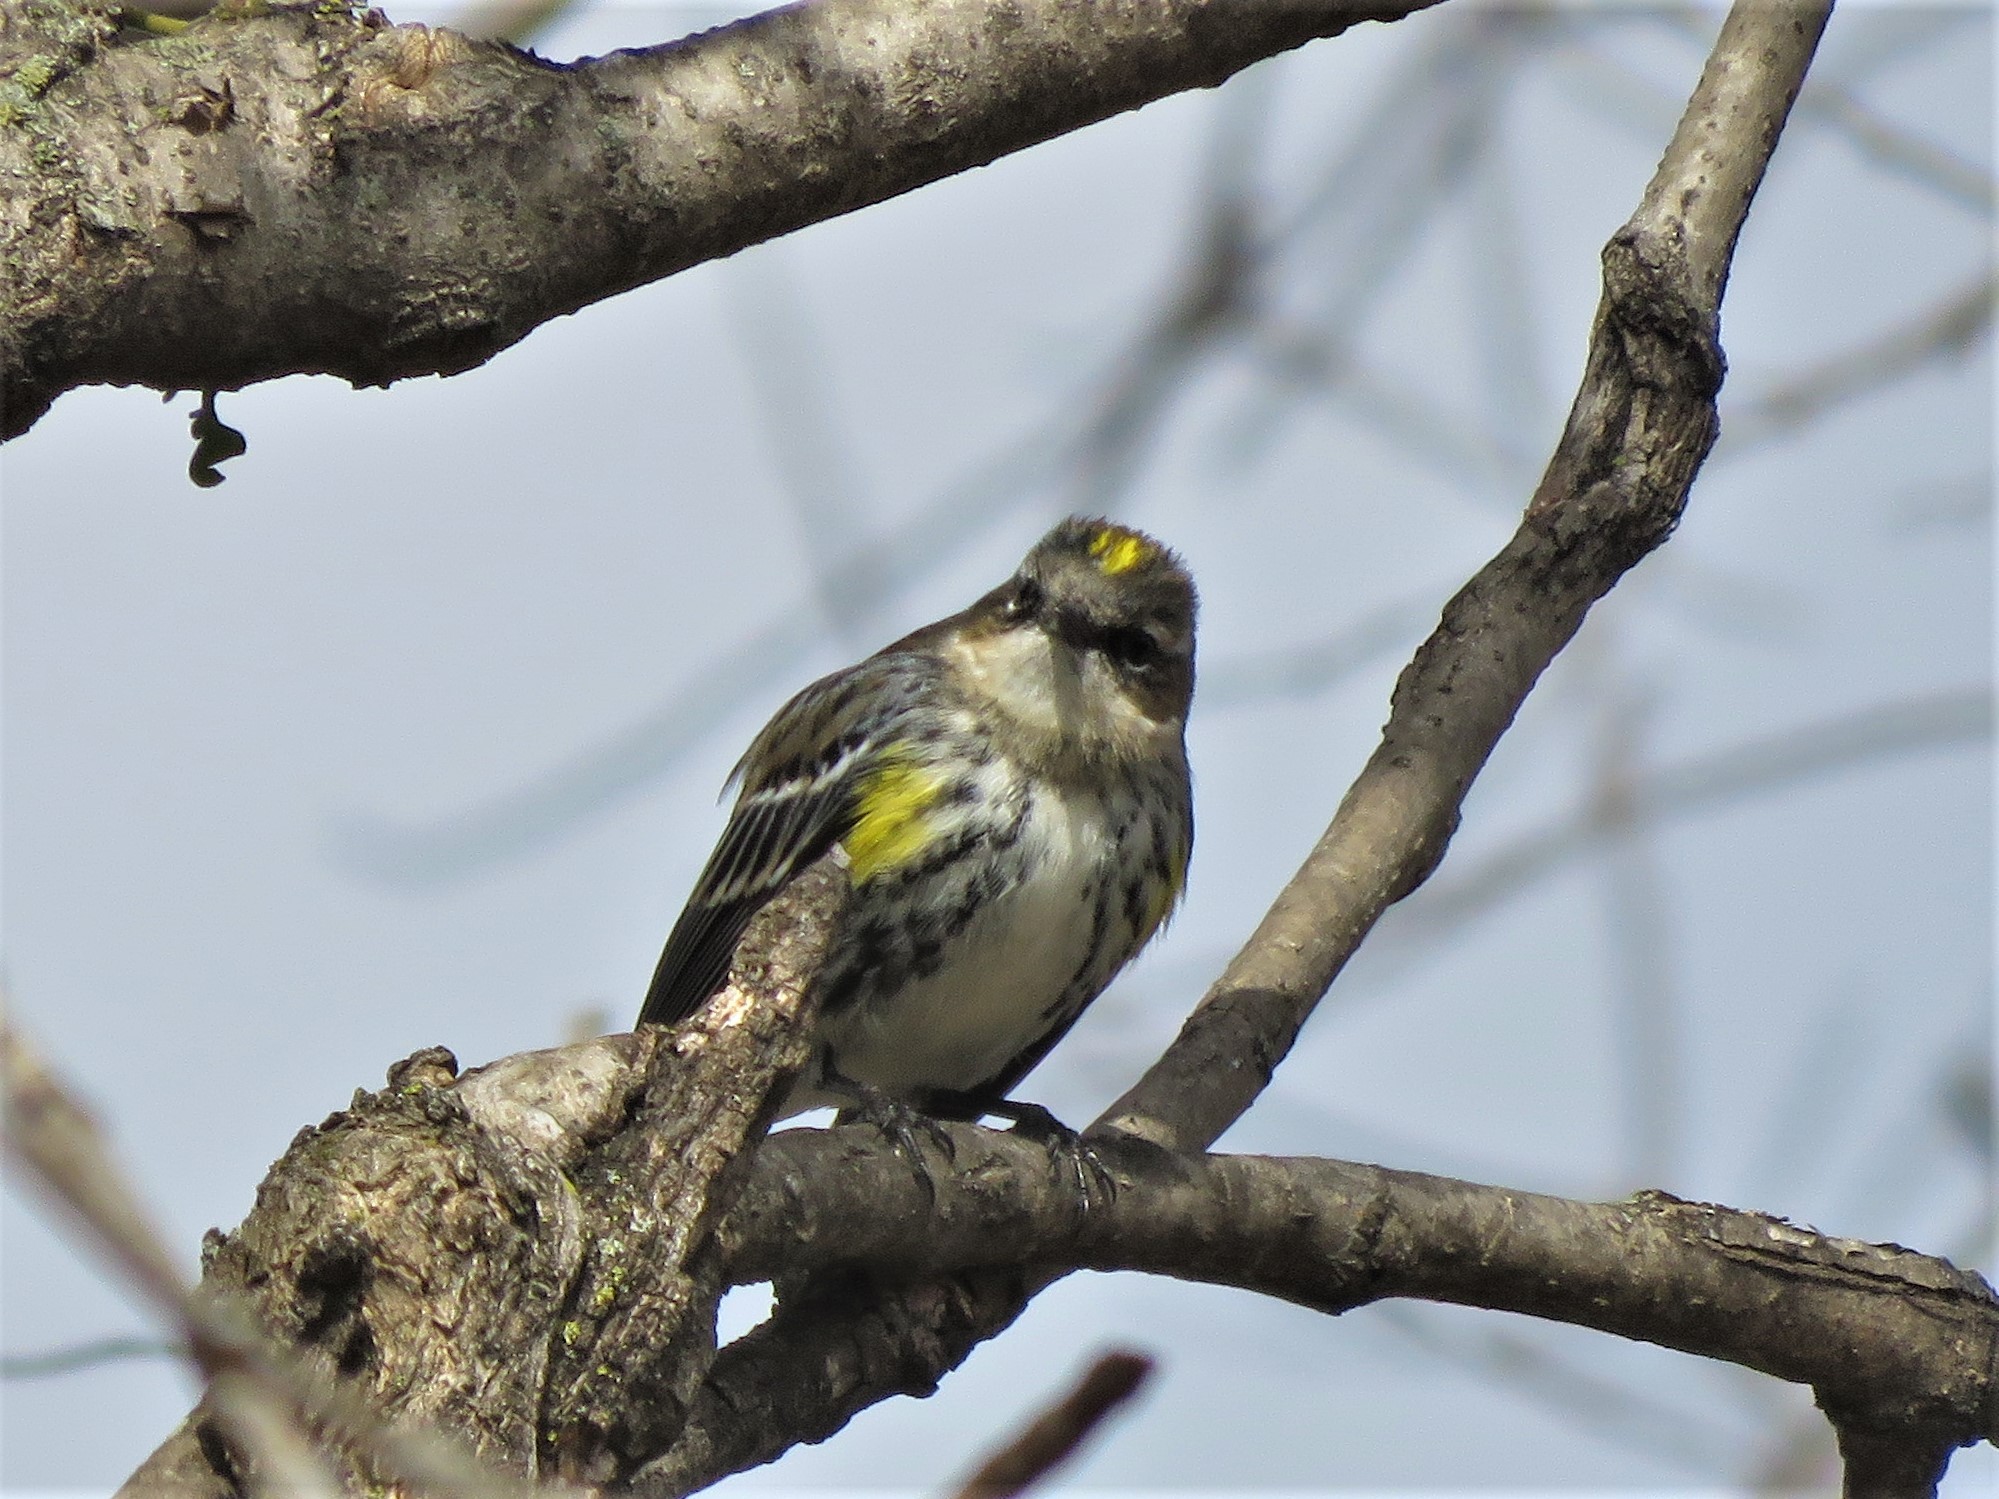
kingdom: Animalia
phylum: Chordata
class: Aves
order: Passeriformes
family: Parulidae
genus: Setophaga
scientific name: Setophaga coronata
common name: Myrtle warbler
